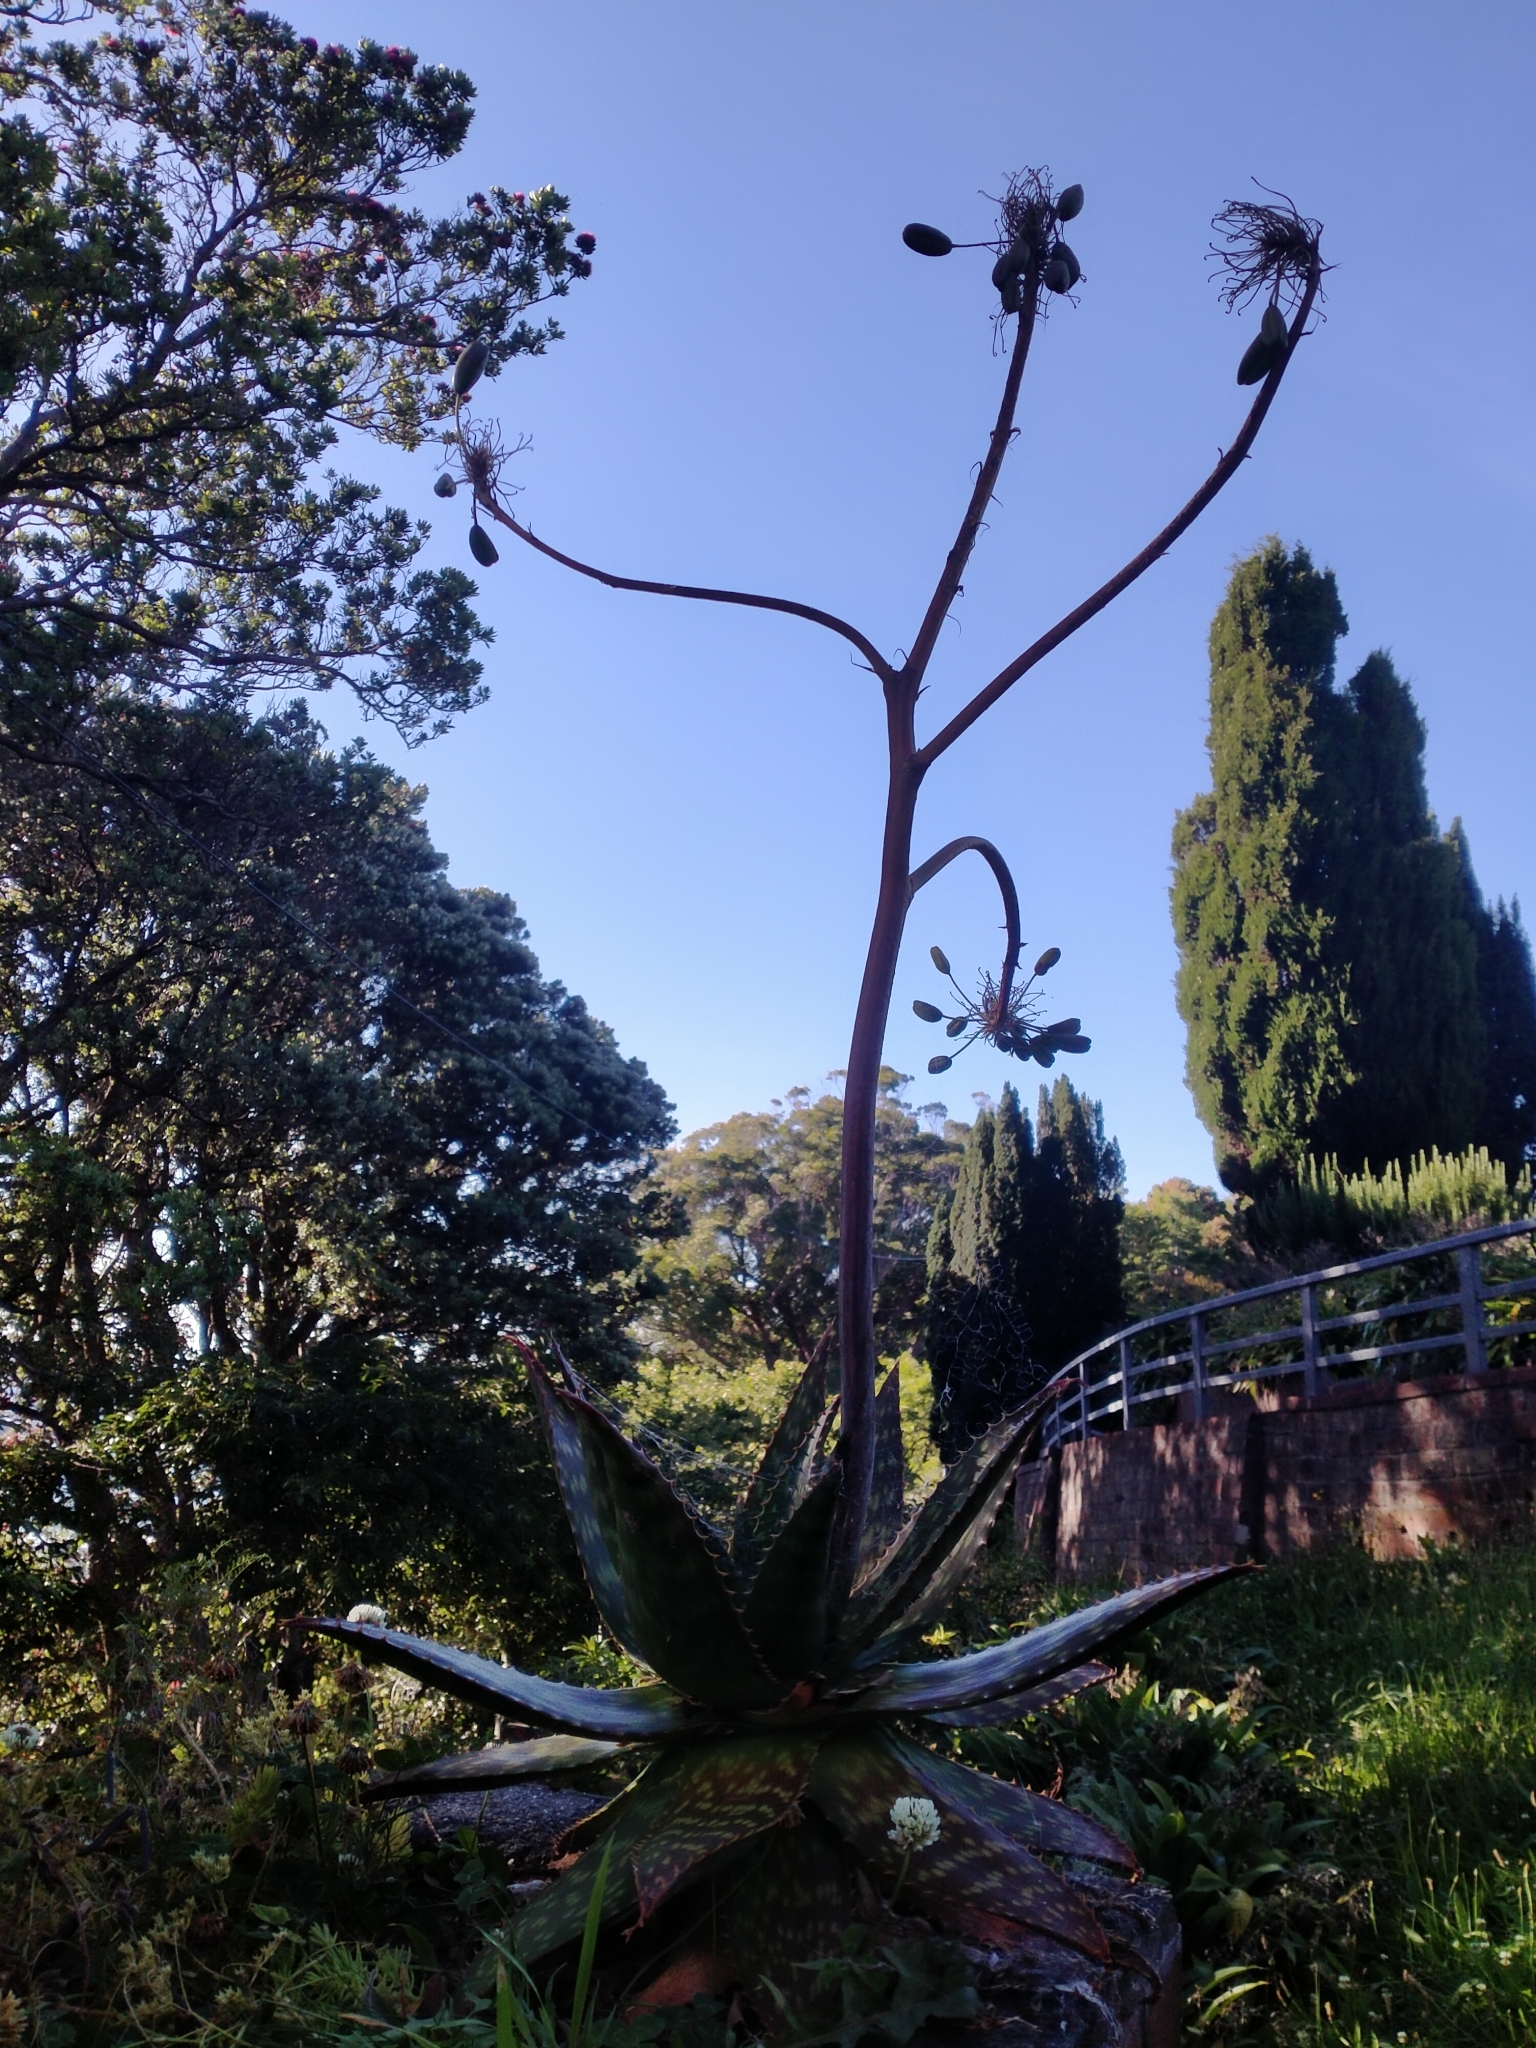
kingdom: Plantae
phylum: Tracheophyta
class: Liliopsida
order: Asparagales
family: Asphodelaceae
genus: Aloe
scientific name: Aloe maculata
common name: Broadleaf aloe
